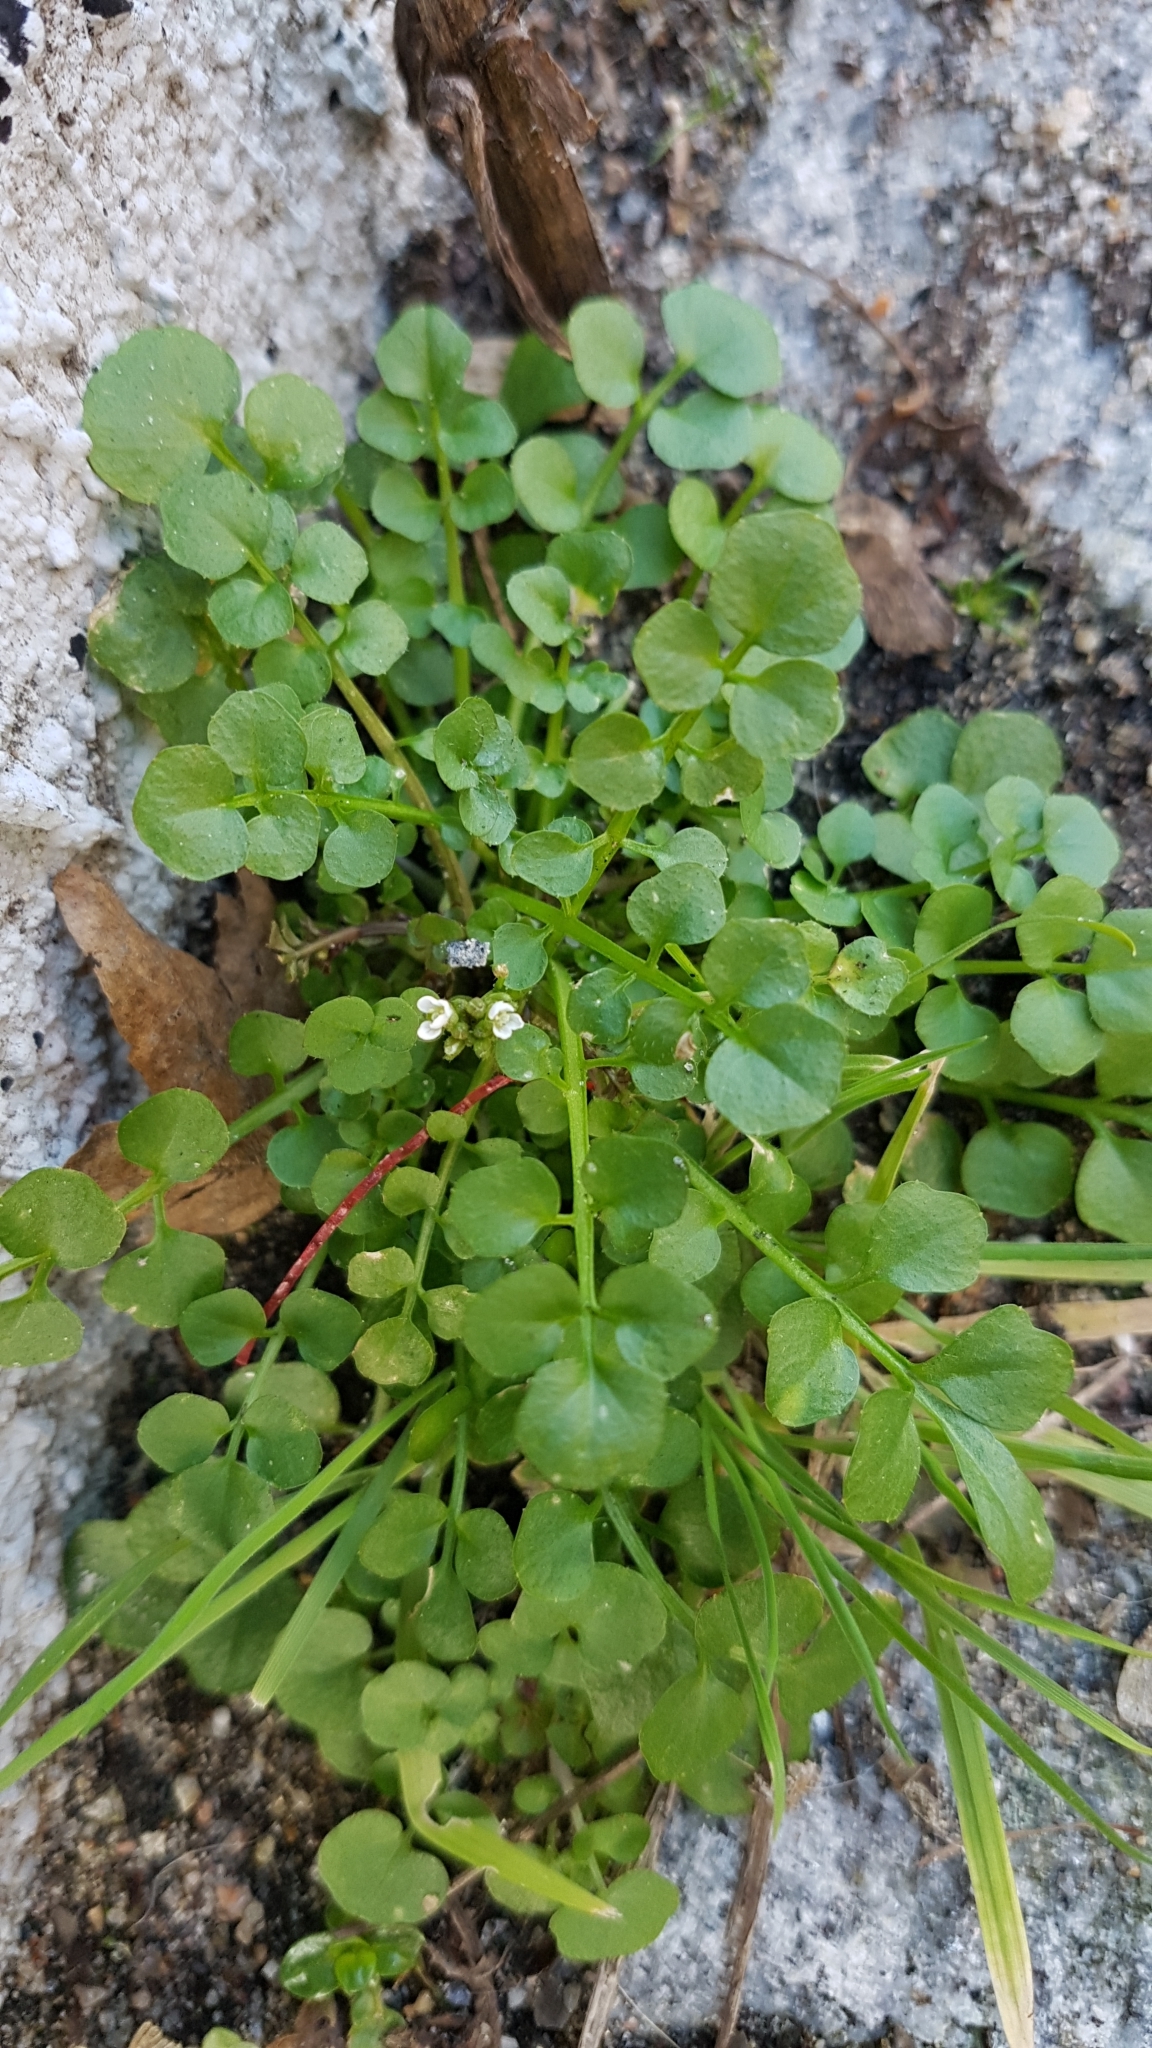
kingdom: Plantae
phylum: Tracheophyta
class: Magnoliopsida
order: Brassicales
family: Brassicaceae
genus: Cardamine
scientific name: Cardamine hirsuta
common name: Hairy bittercress
